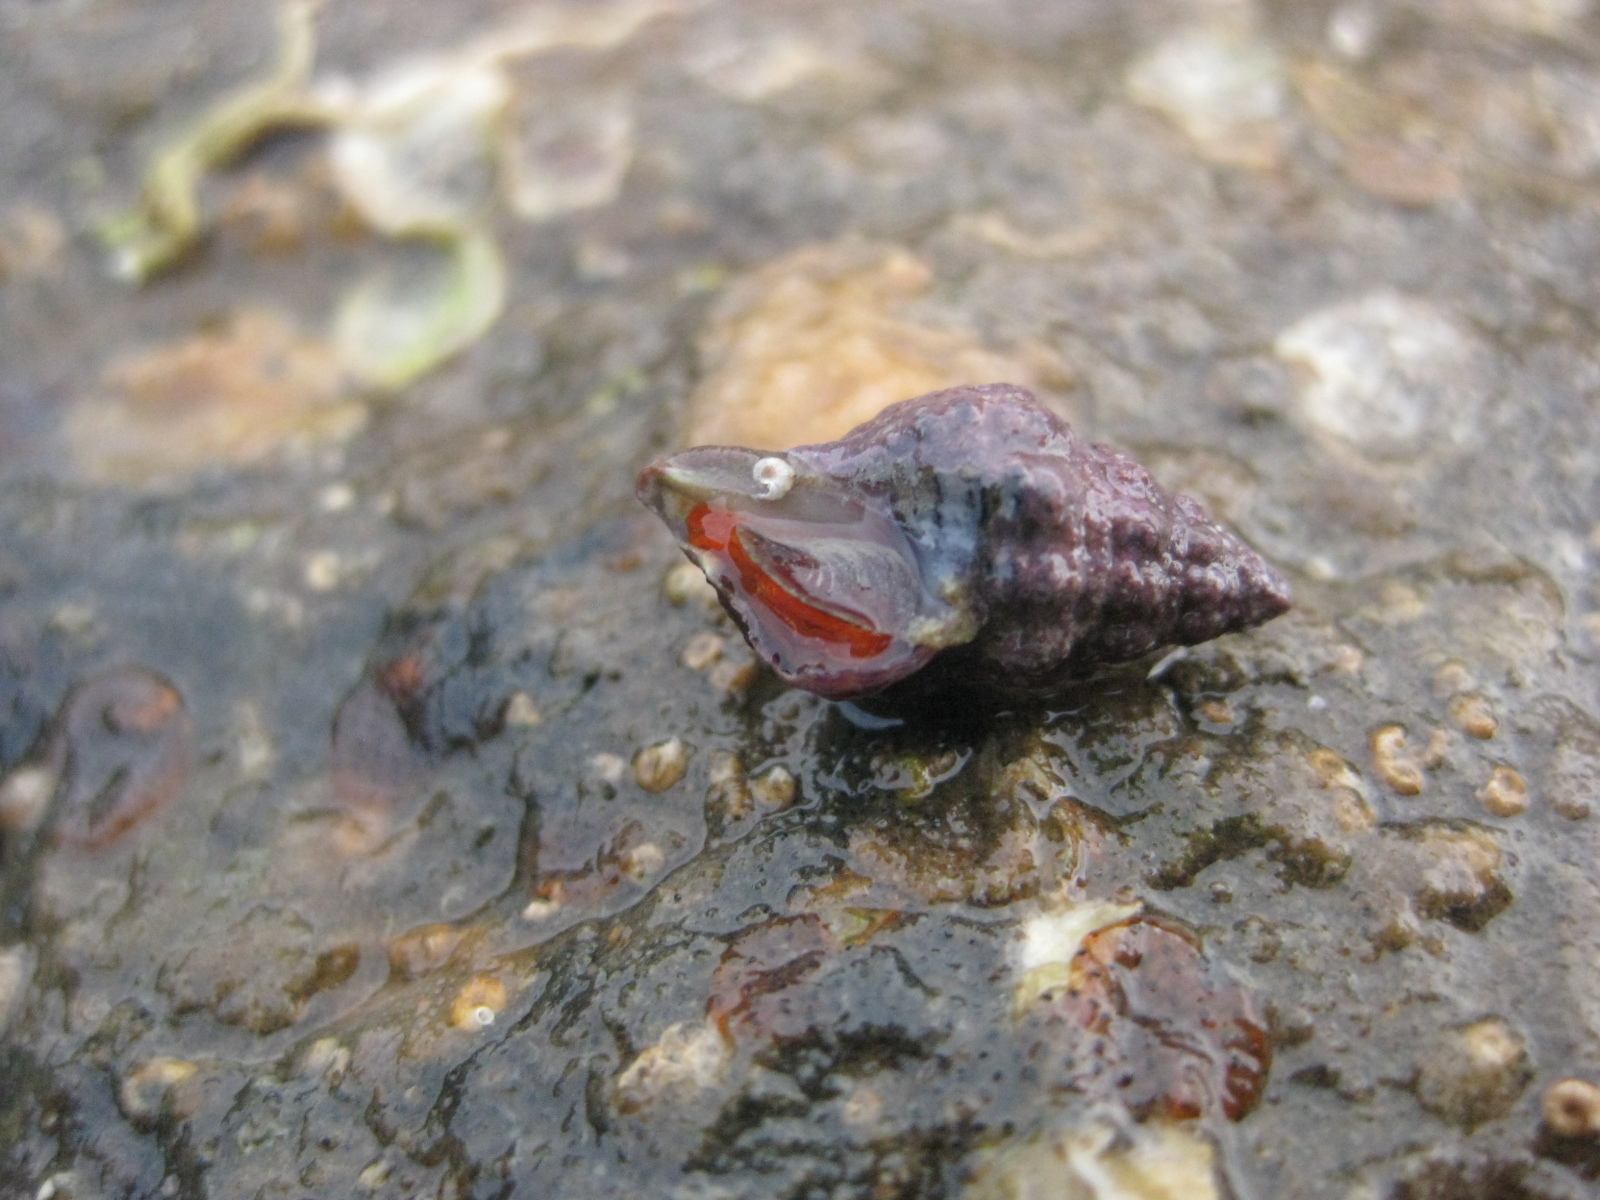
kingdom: Animalia
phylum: Mollusca
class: Gastropoda
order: Neogastropoda
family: Fasciolariidae
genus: Taron
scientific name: Taron dubius
